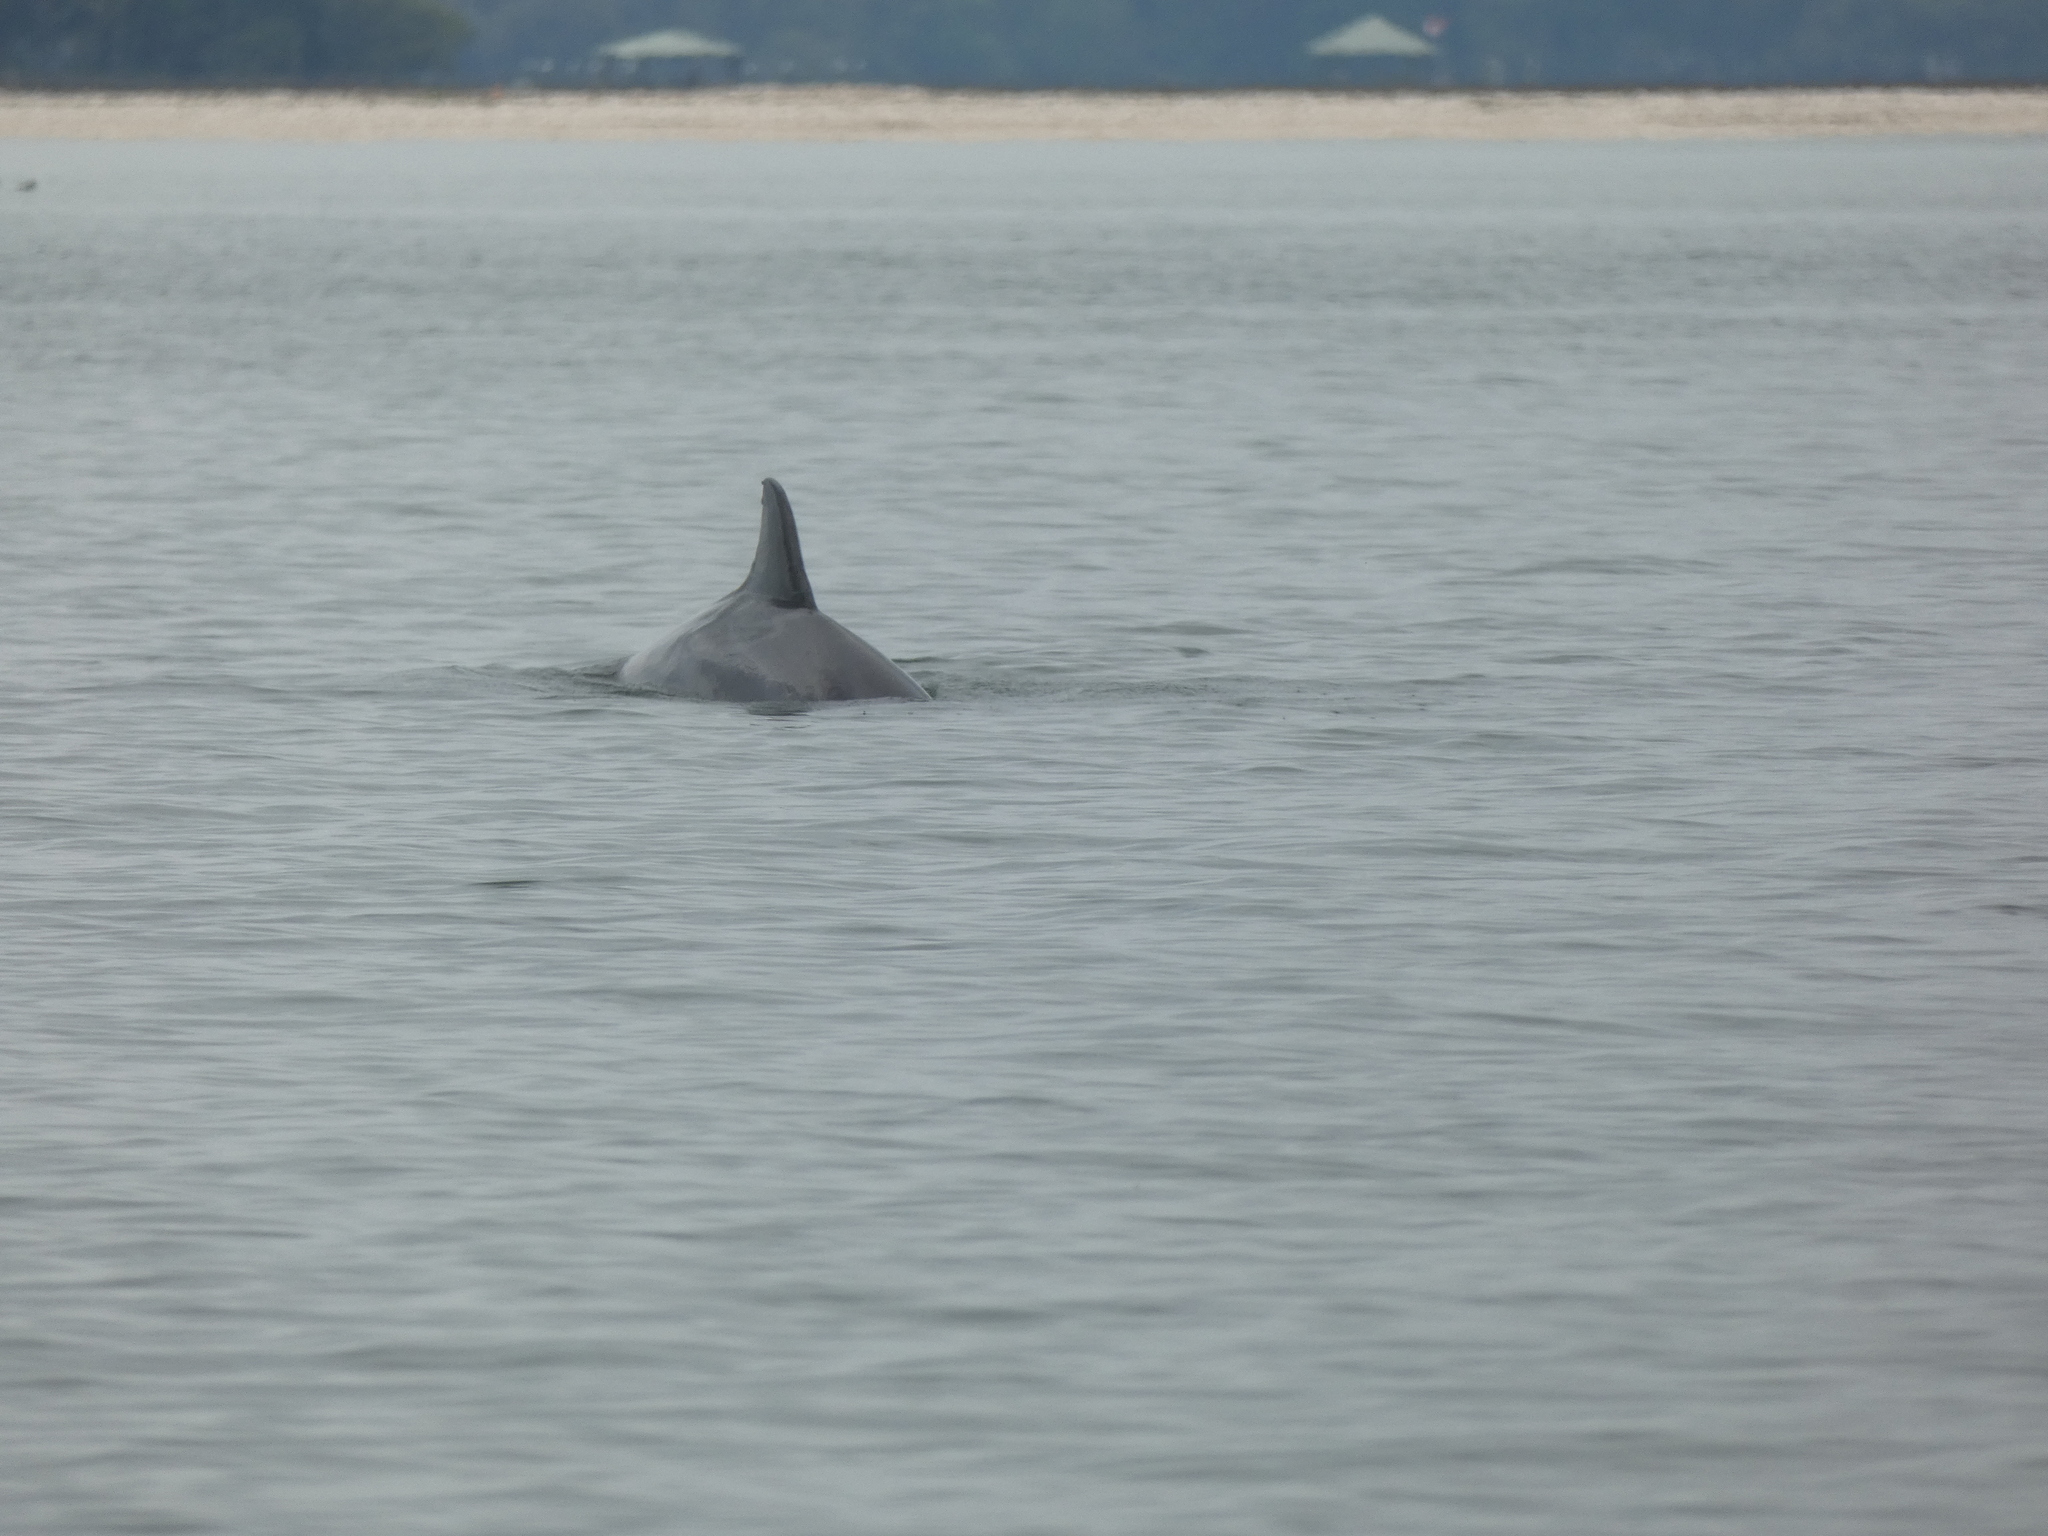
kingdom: Animalia
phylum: Chordata
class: Mammalia
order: Cetacea
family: Delphinidae
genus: Tursiops
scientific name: Tursiops truncatus
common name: Bottlenose dolphin
